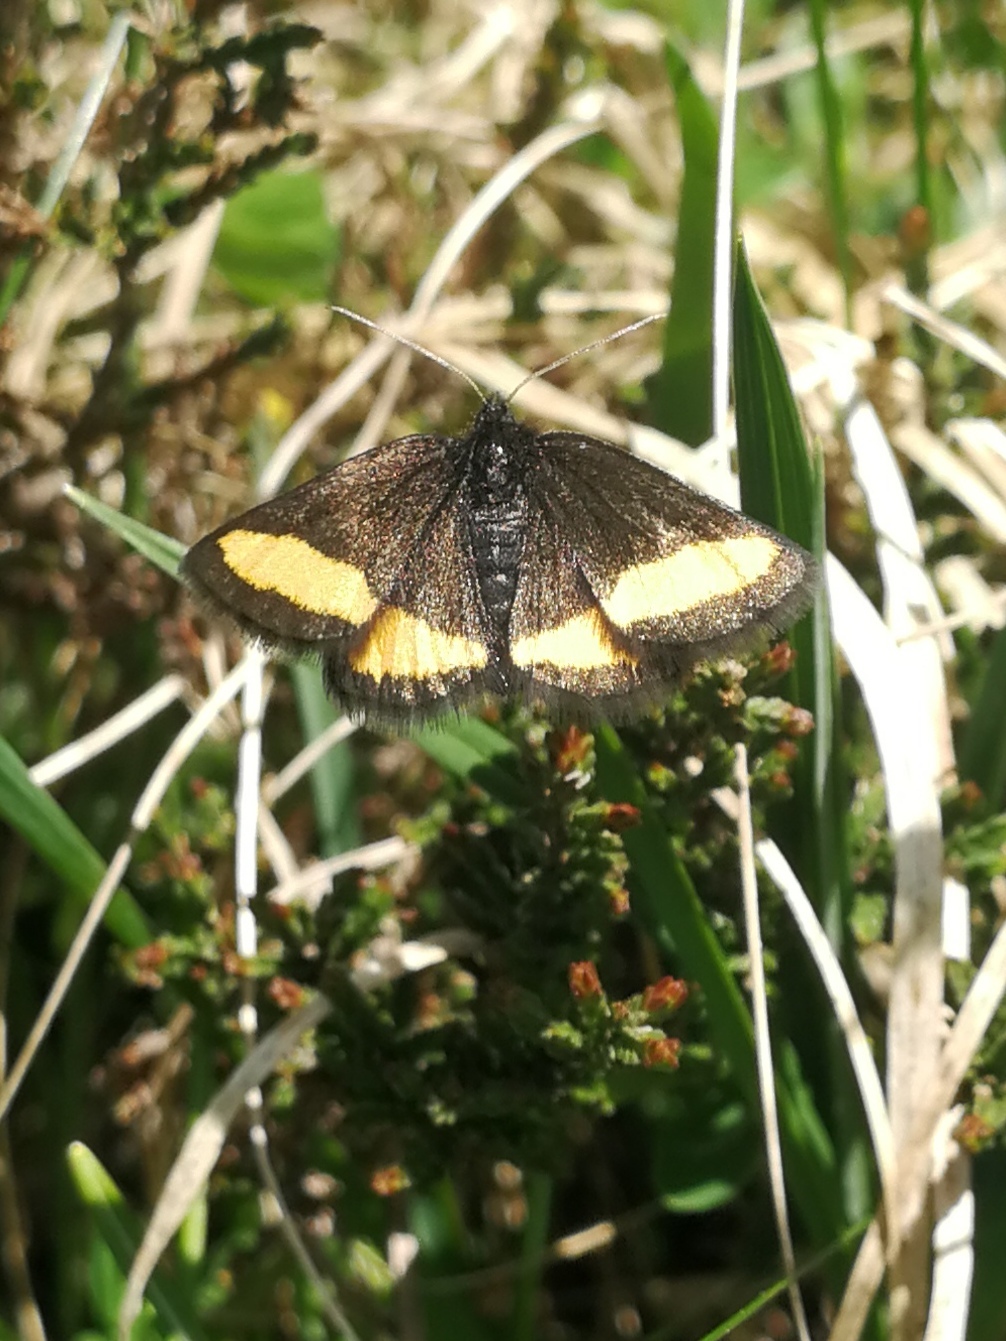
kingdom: Animalia
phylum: Arthropoda
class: Insecta
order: Lepidoptera
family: Geometridae
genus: Psodos
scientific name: Psodos quadrifaria
